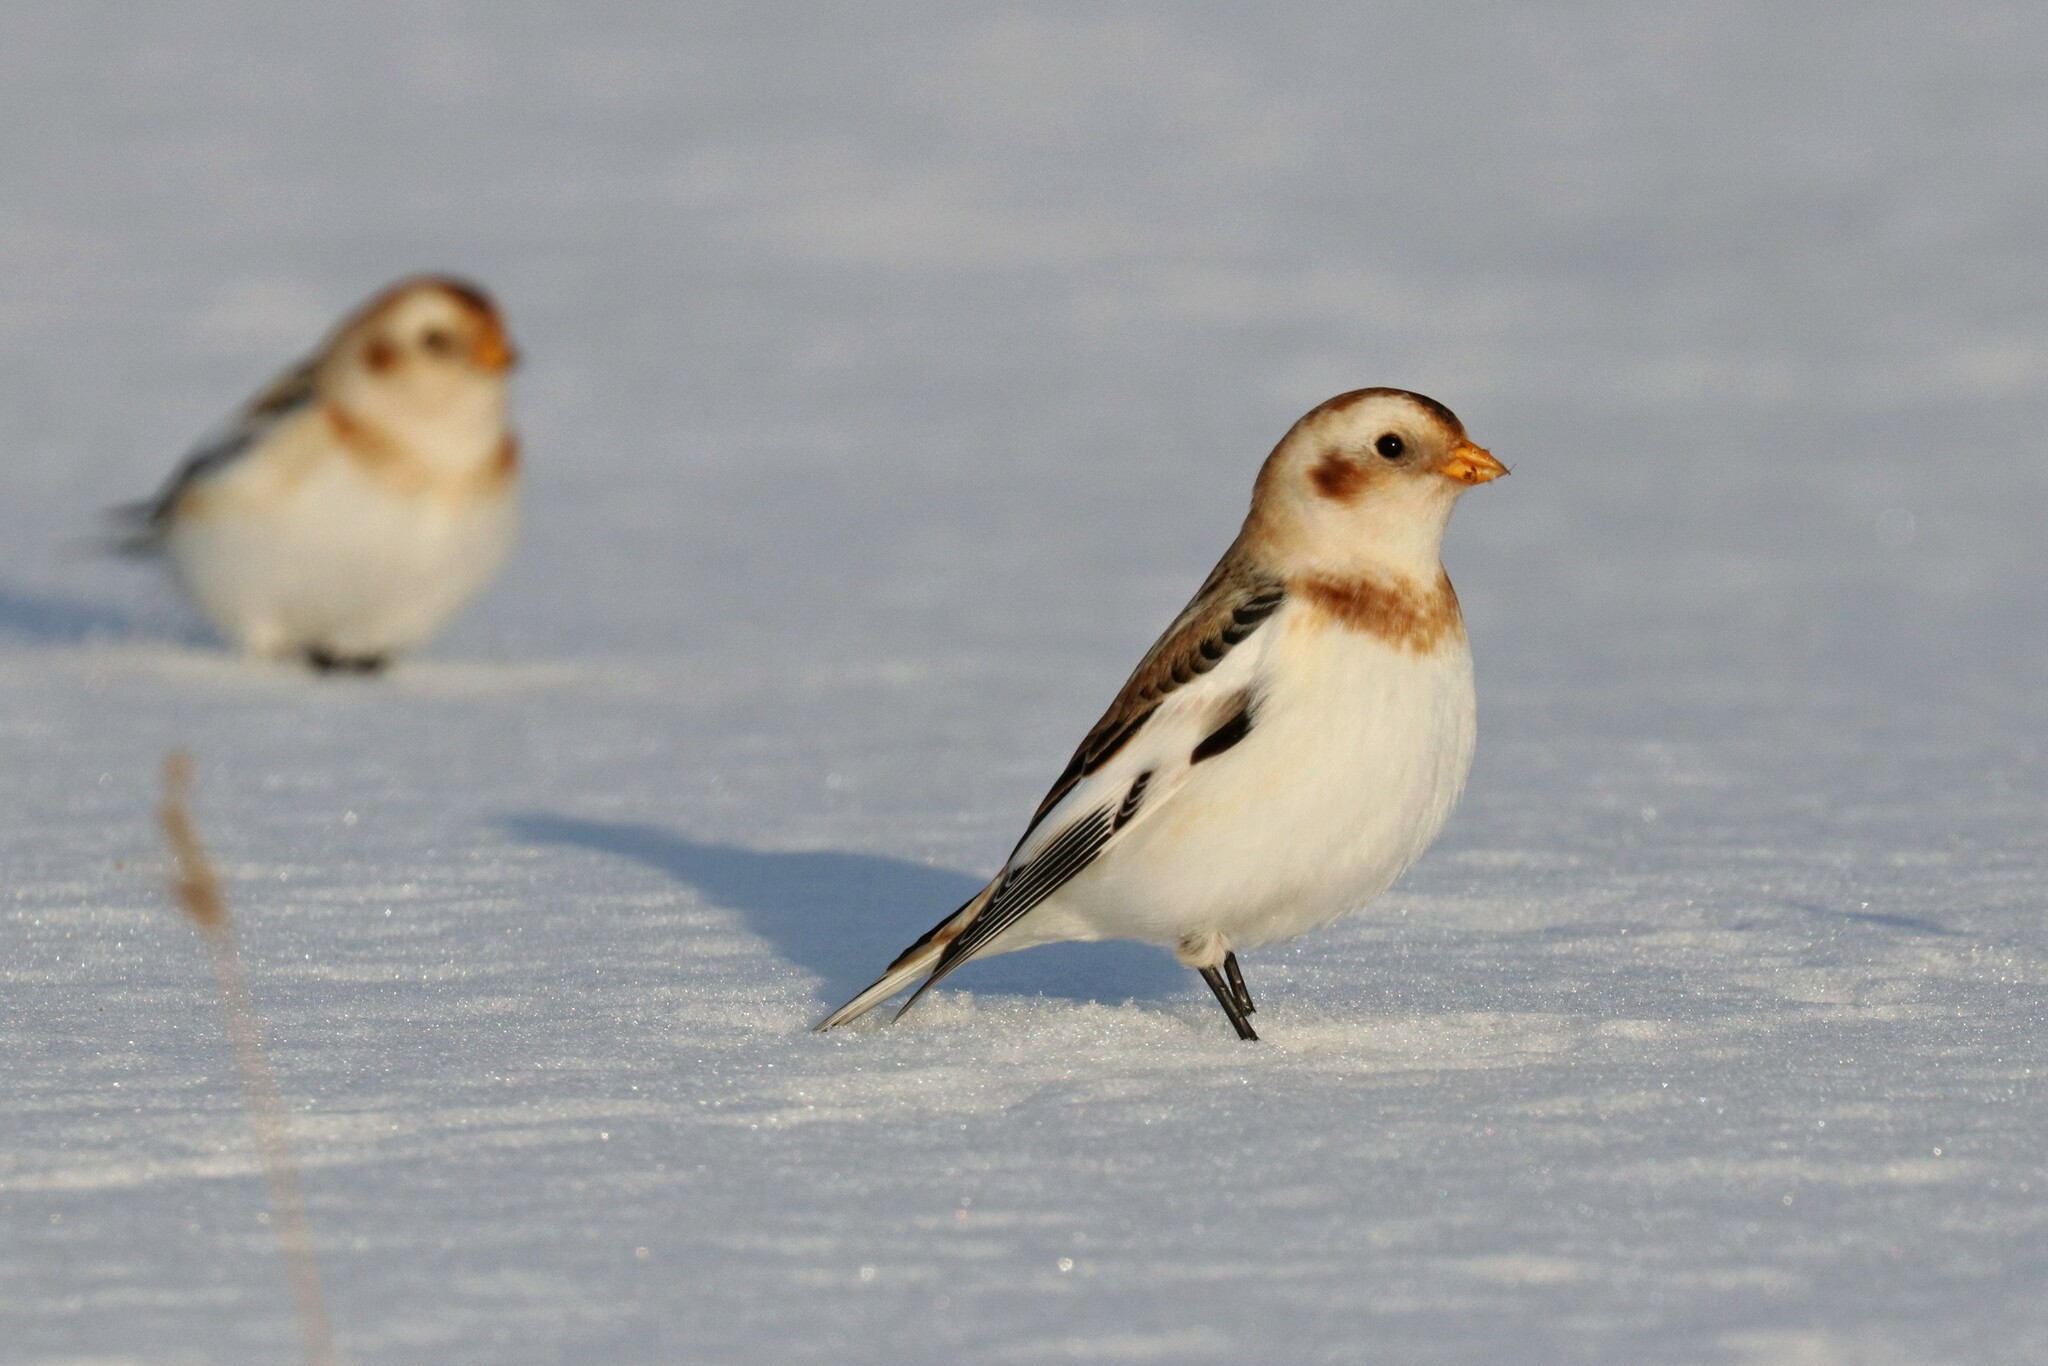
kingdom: Animalia
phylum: Chordata
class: Aves
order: Passeriformes
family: Calcariidae
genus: Plectrophenax
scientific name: Plectrophenax nivalis
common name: Snow bunting
